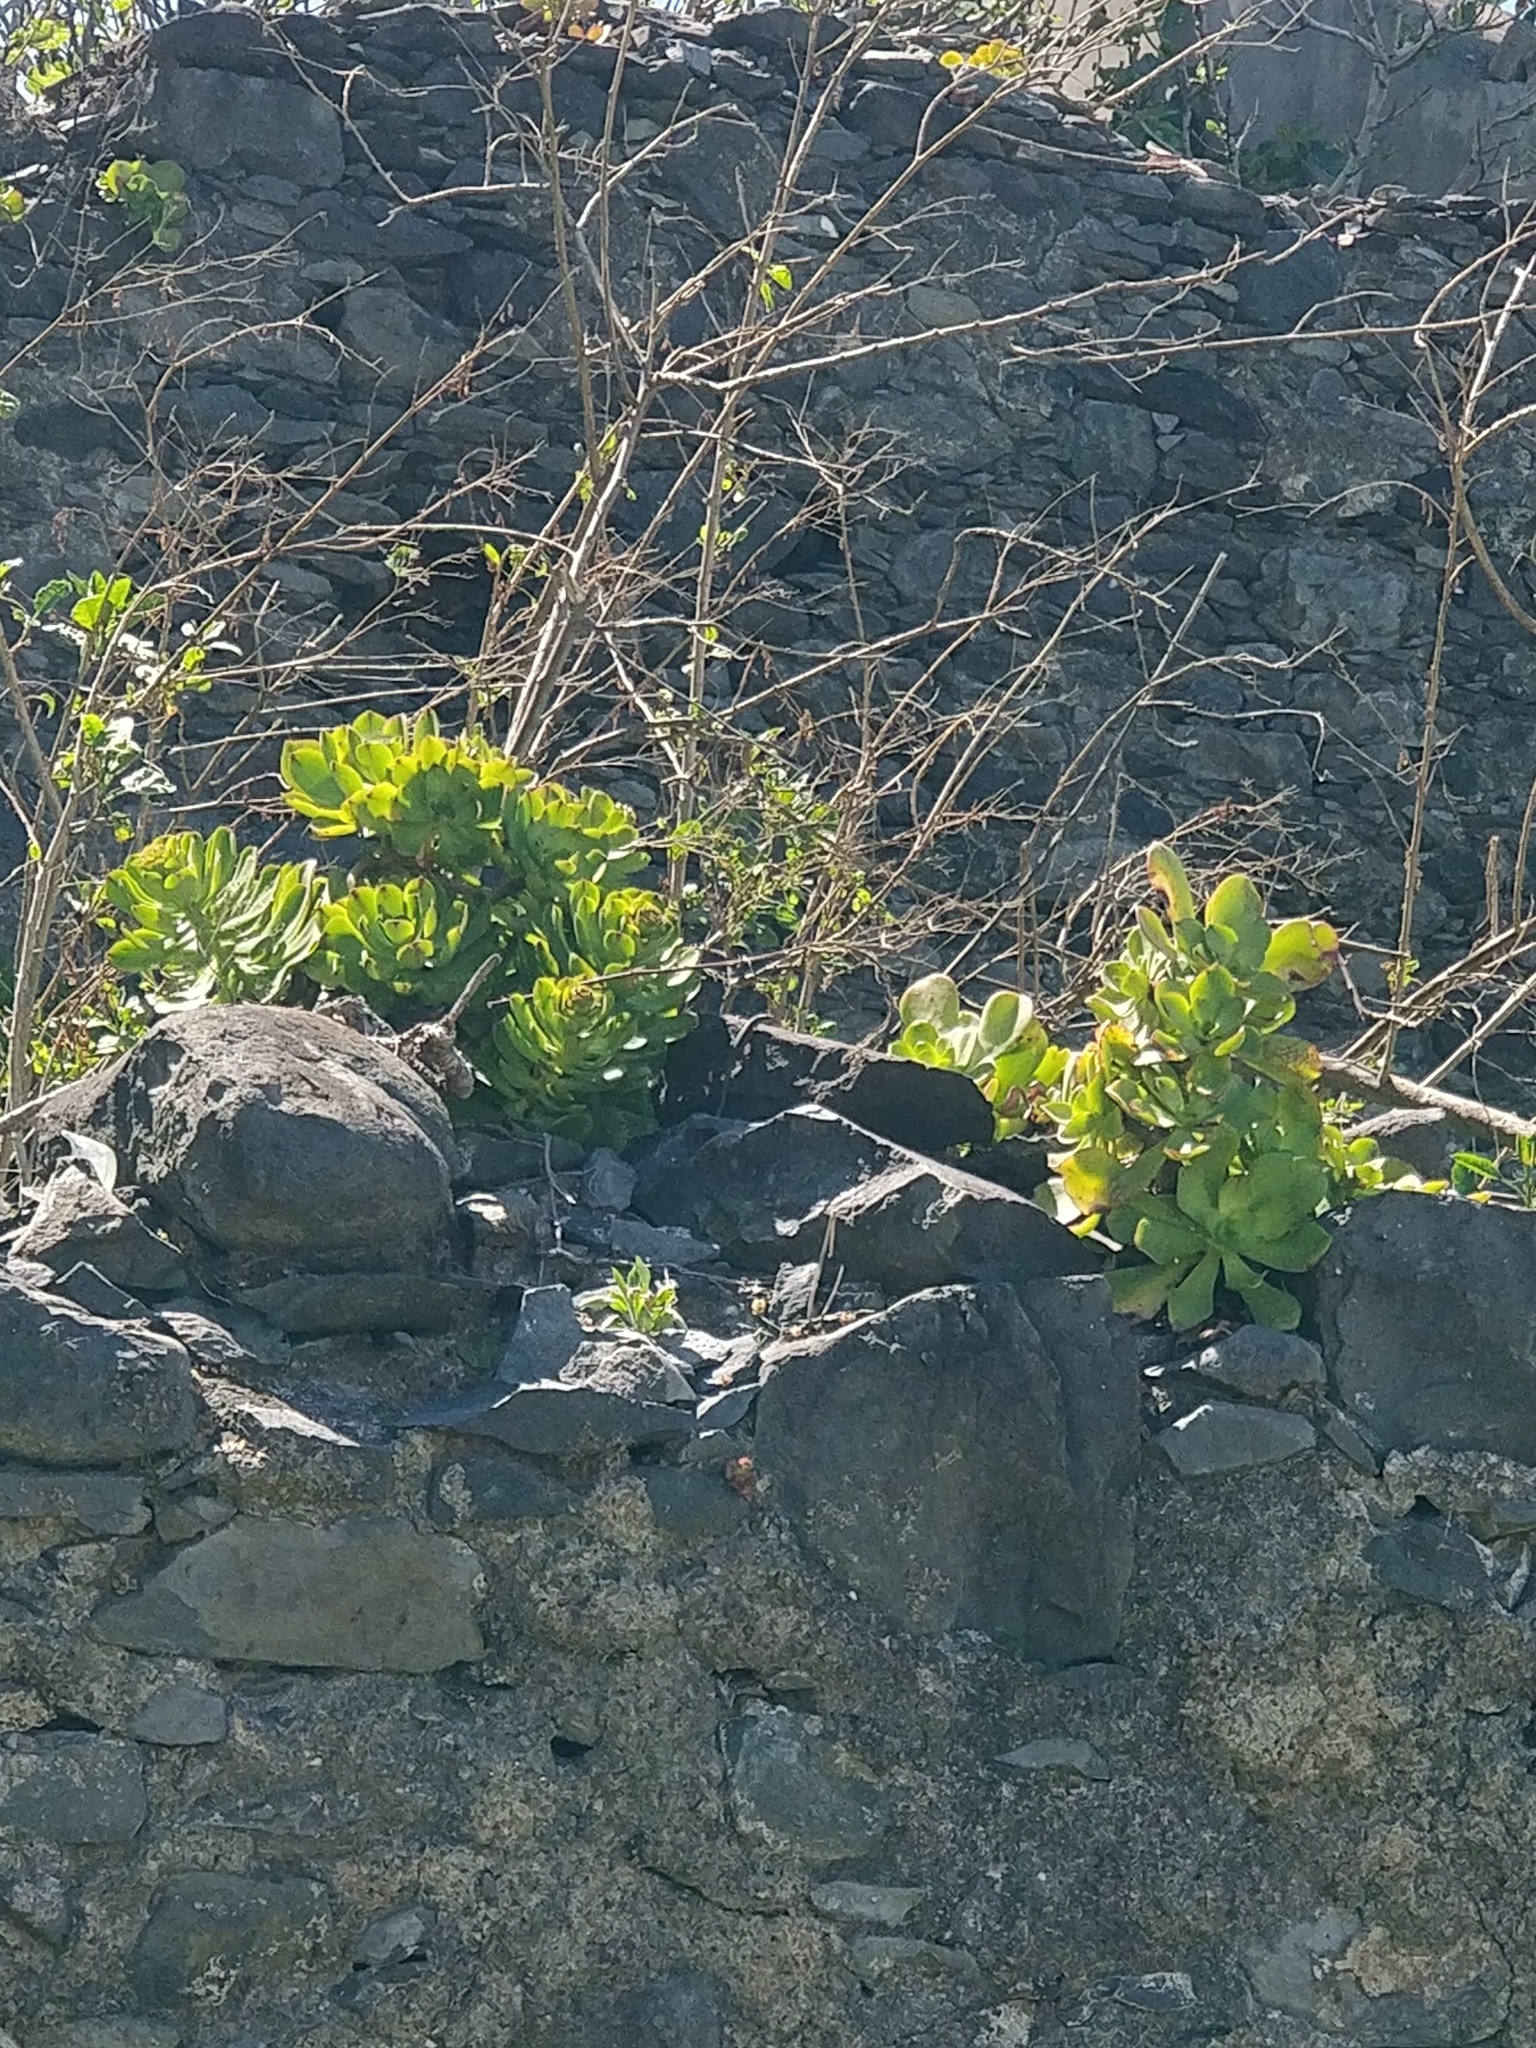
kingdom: Plantae
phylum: Tracheophyta
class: Magnoliopsida
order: Saxifragales
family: Crassulaceae
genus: Aeonium
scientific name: Aeonium glutinosum
